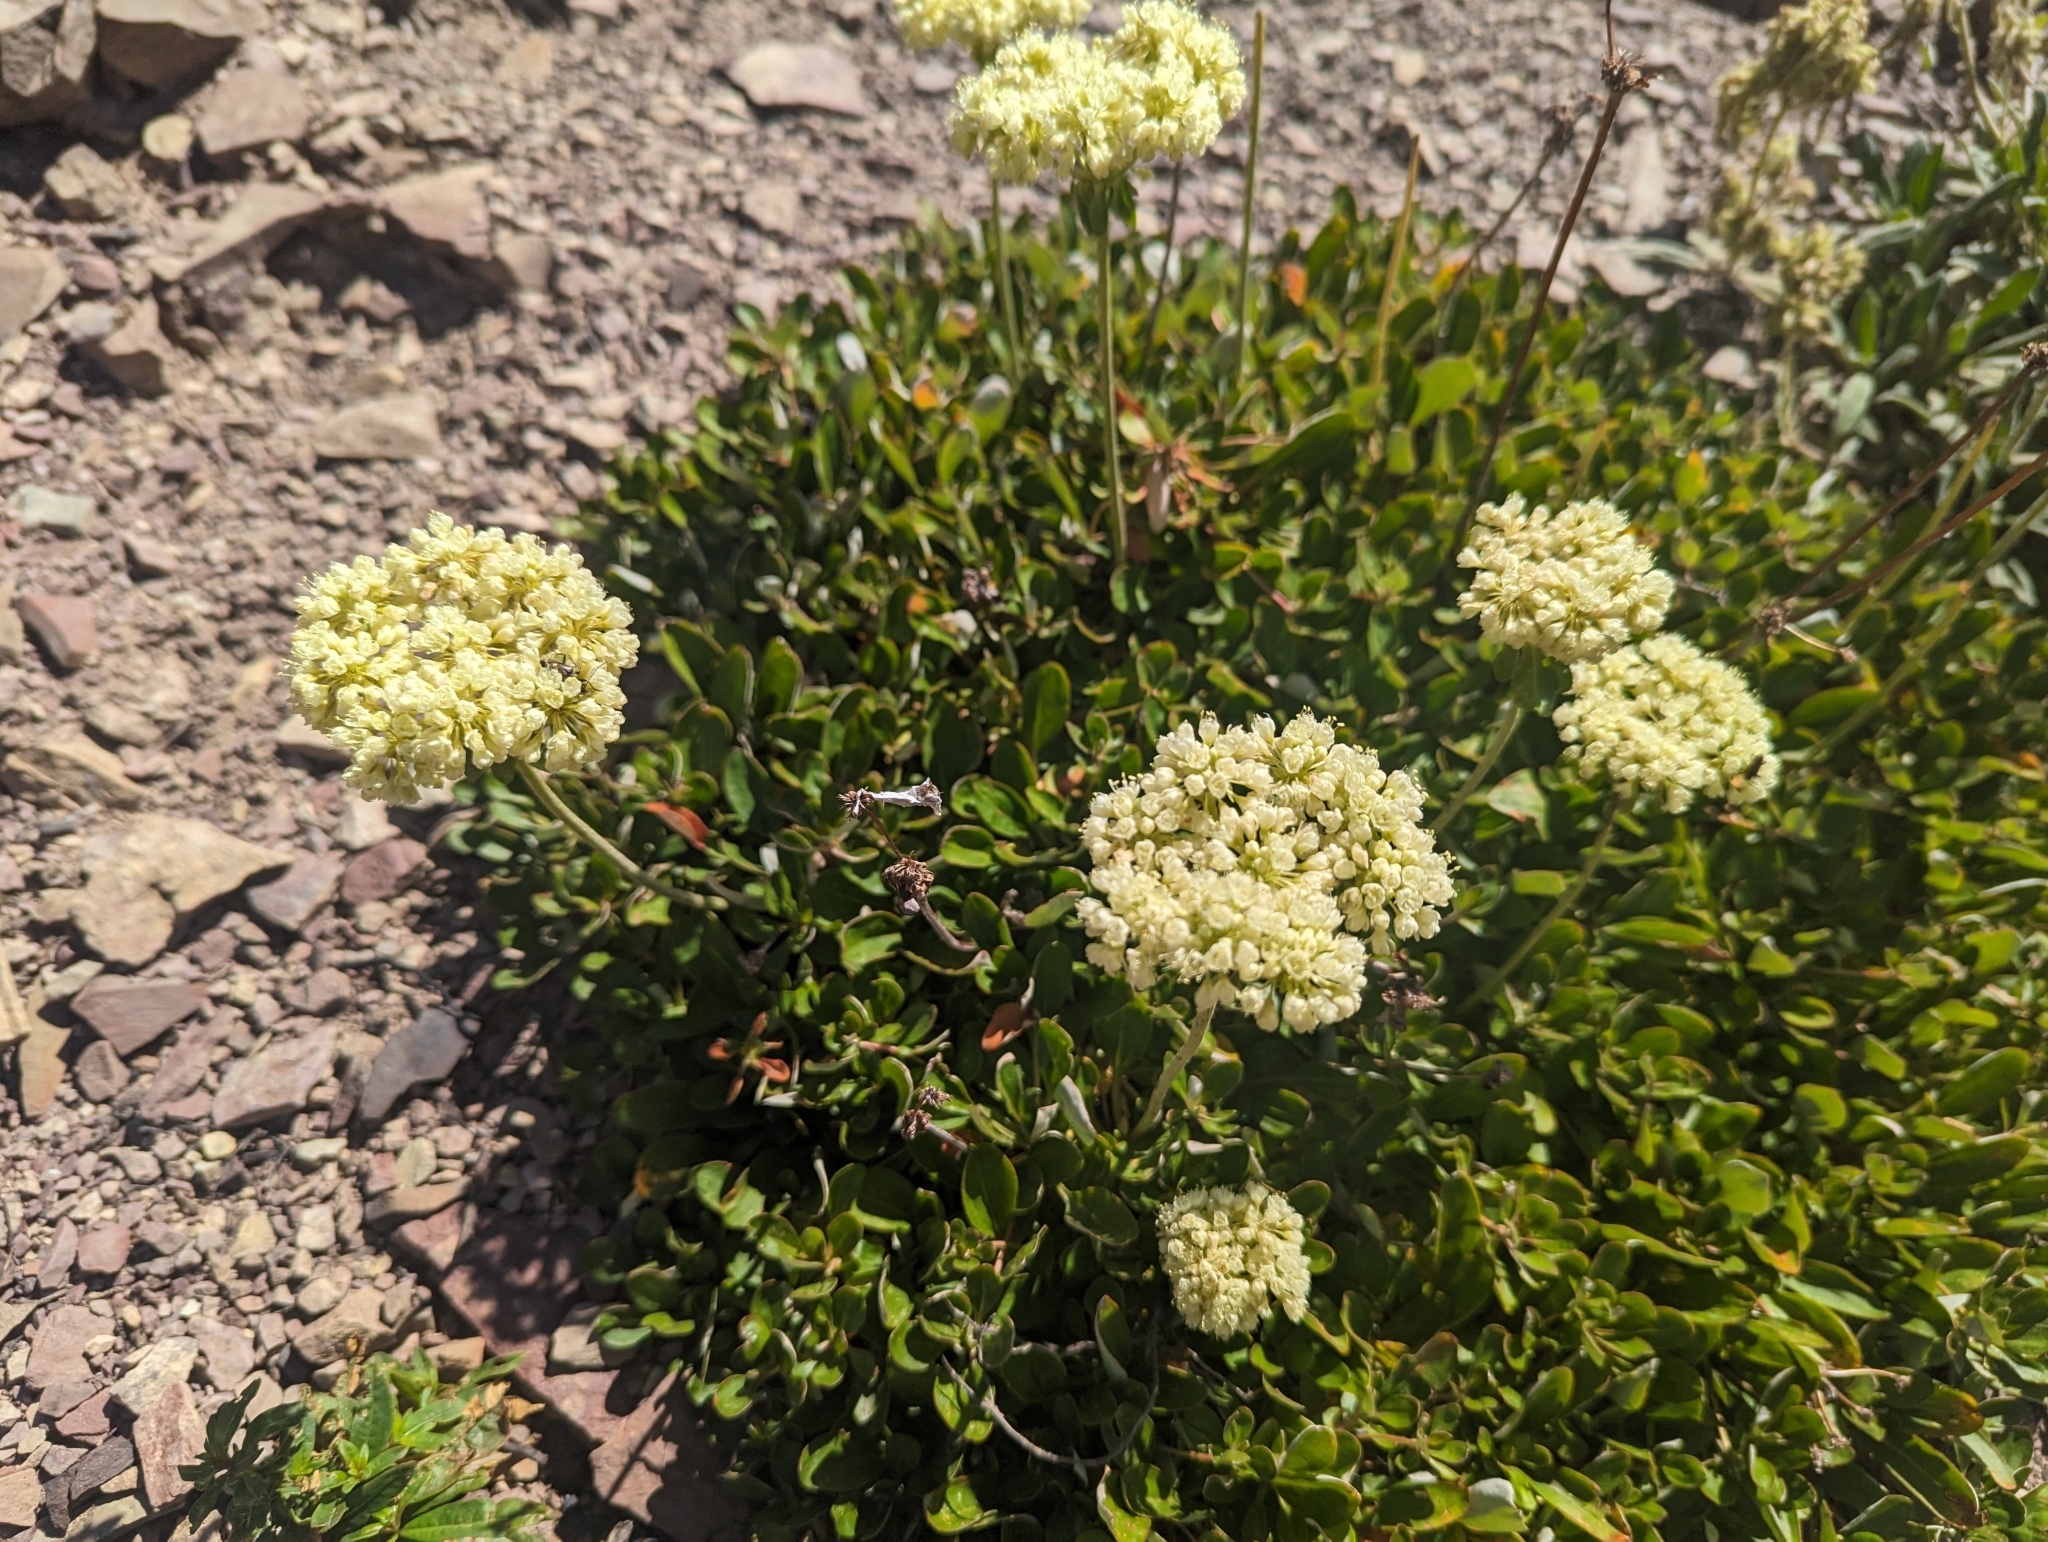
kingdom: Plantae
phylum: Tracheophyta
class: Magnoliopsida
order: Caryophyllales
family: Polygonaceae
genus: Eriogonum
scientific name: Eriogonum umbellatum
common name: Sulfur-buckwheat
